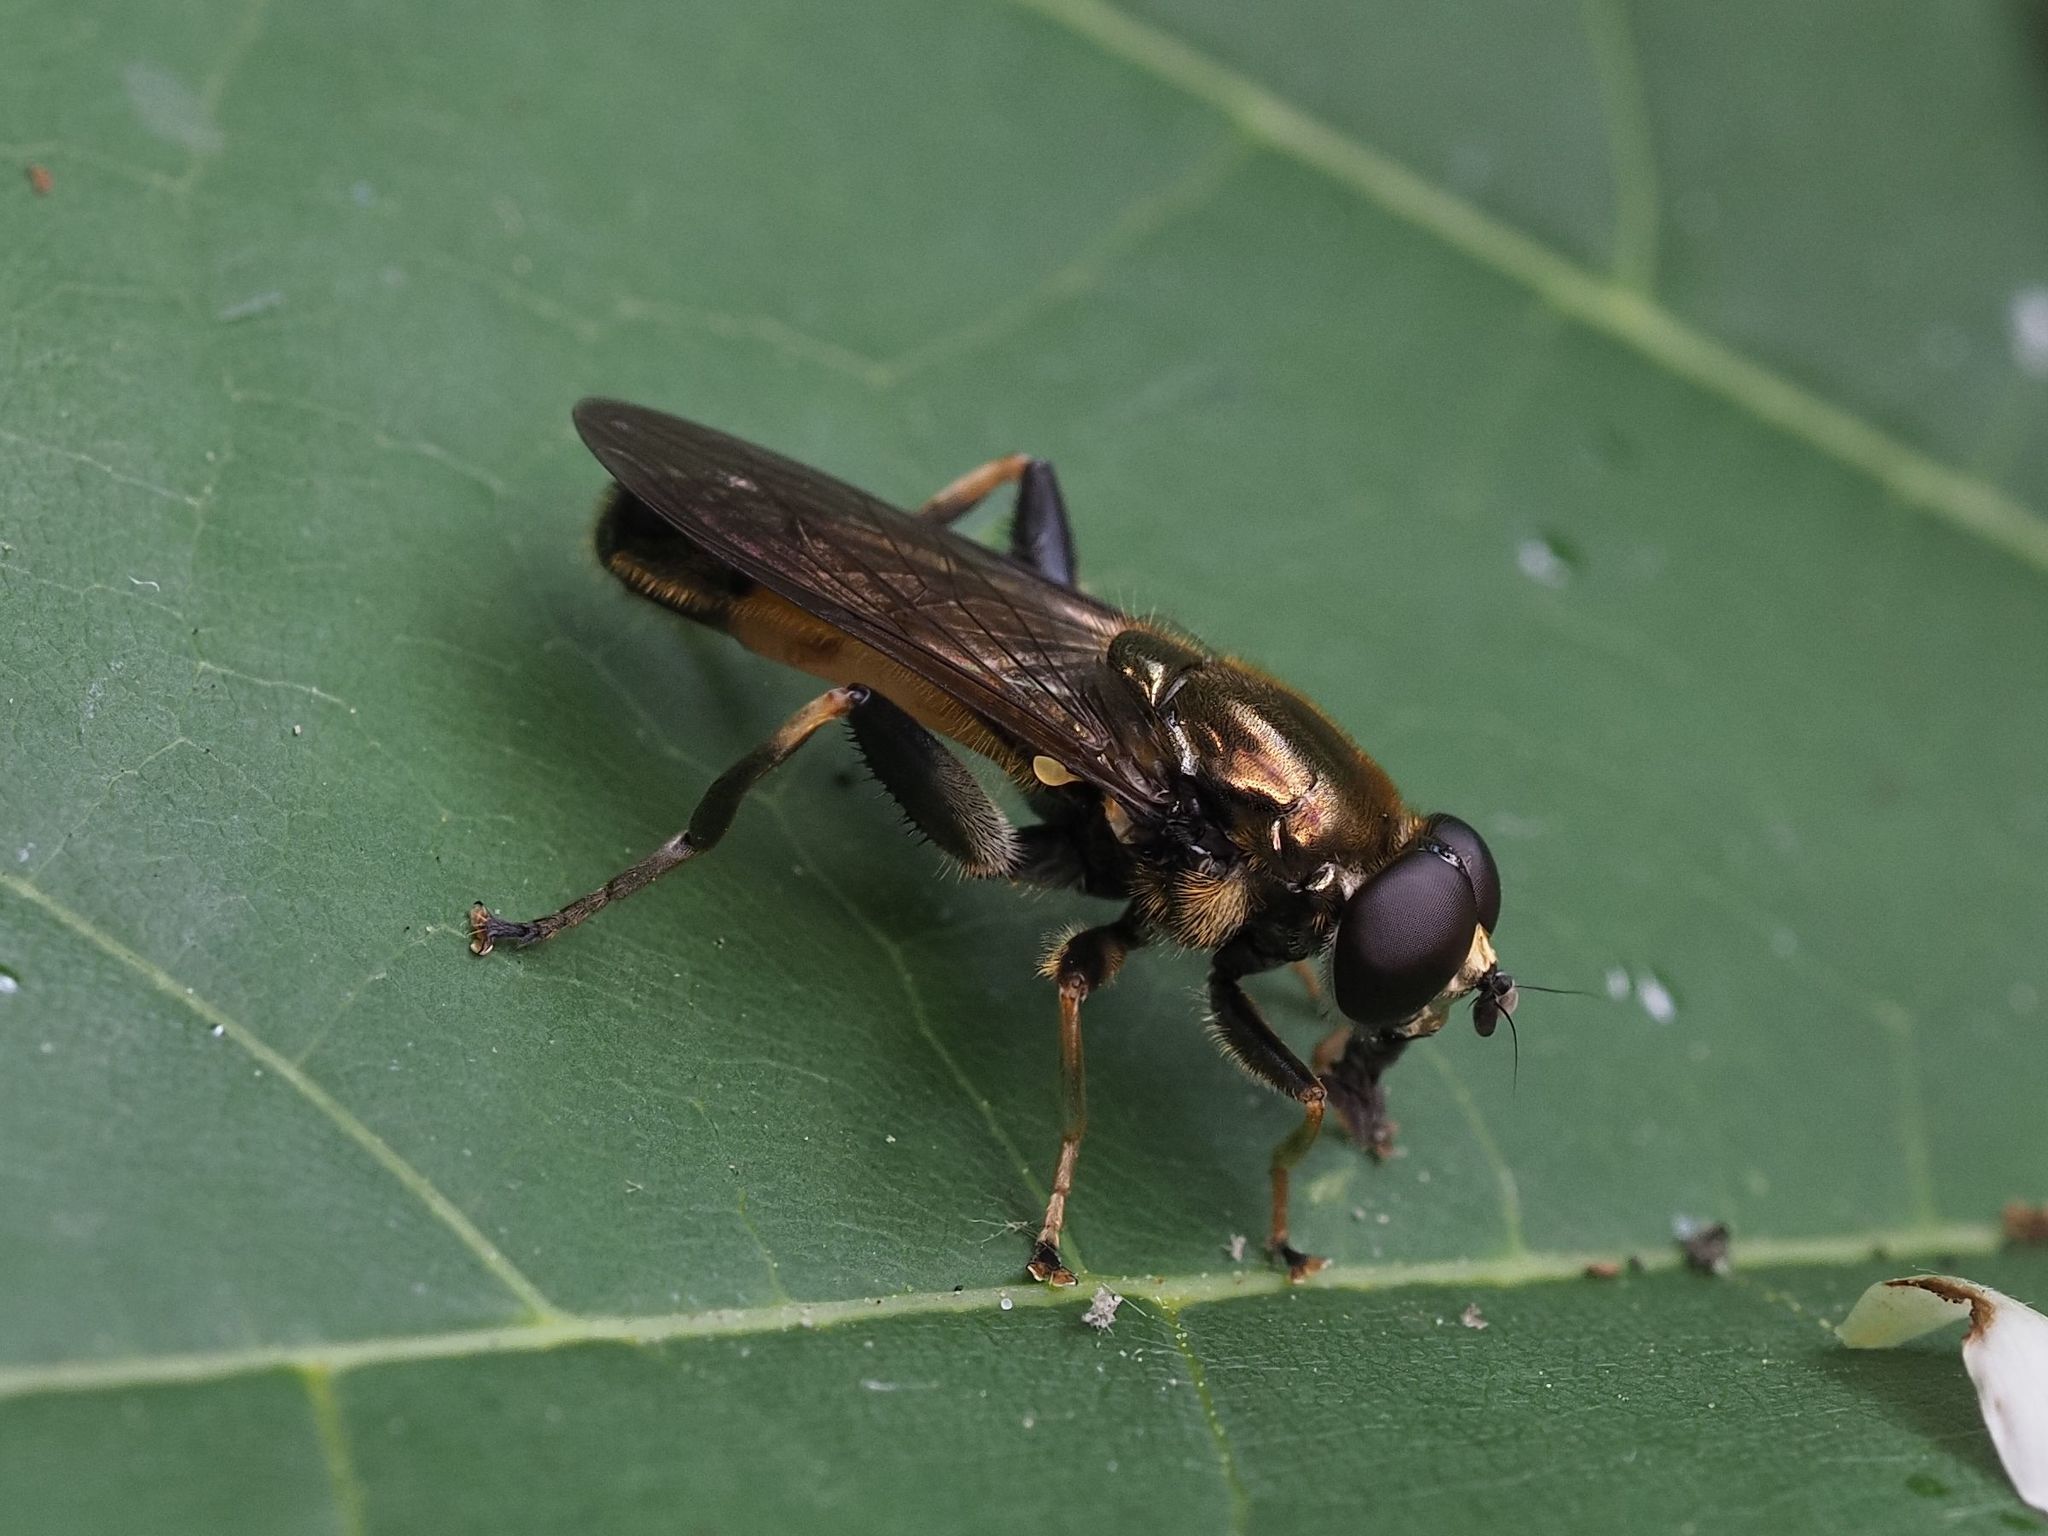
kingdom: Animalia
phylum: Arthropoda
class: Insecta
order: Diptera
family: Syrphidae
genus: Xylota
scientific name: Xylota segnis
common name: Brown-toed forest fly
